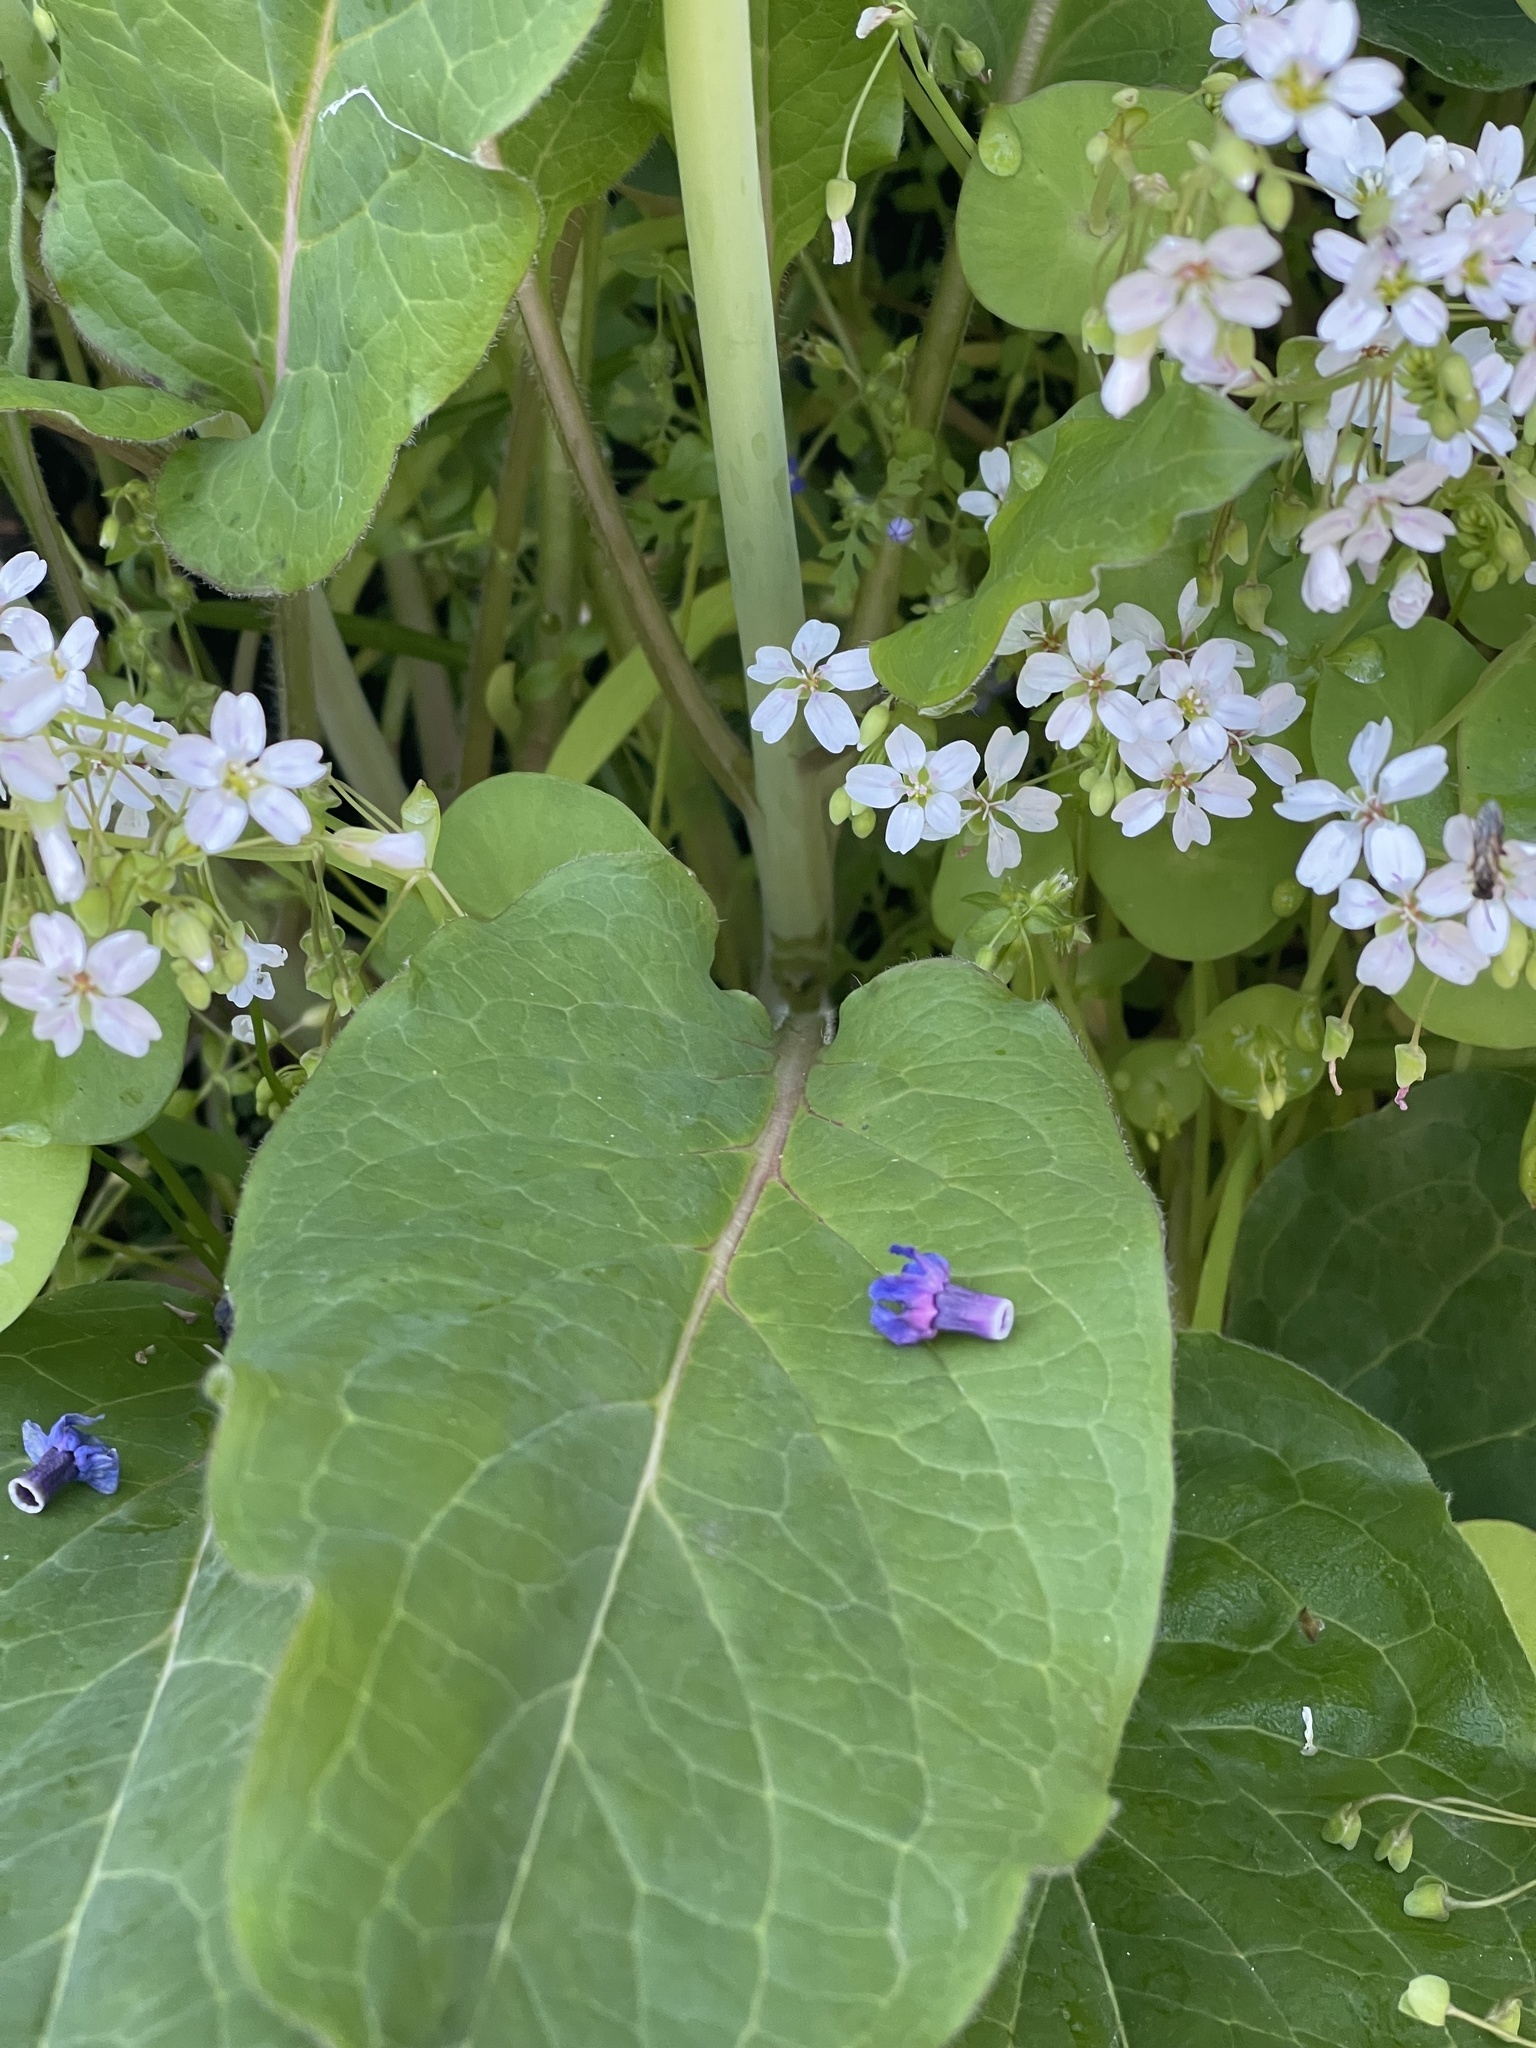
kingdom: Plantae
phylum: Tracheophyta
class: Magnoliopsida
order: Boraginales
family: Boraginaceae
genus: Adelinia
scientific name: Adelinia grande
